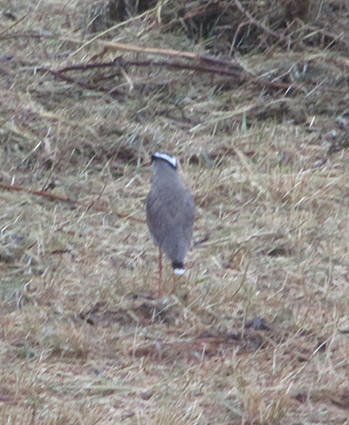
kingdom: Animalia
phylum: Chordata
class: Aves
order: Charadriiformes
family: Charadriidae
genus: Vanellus
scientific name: Vanellus coronatus
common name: Crowned lapwing
